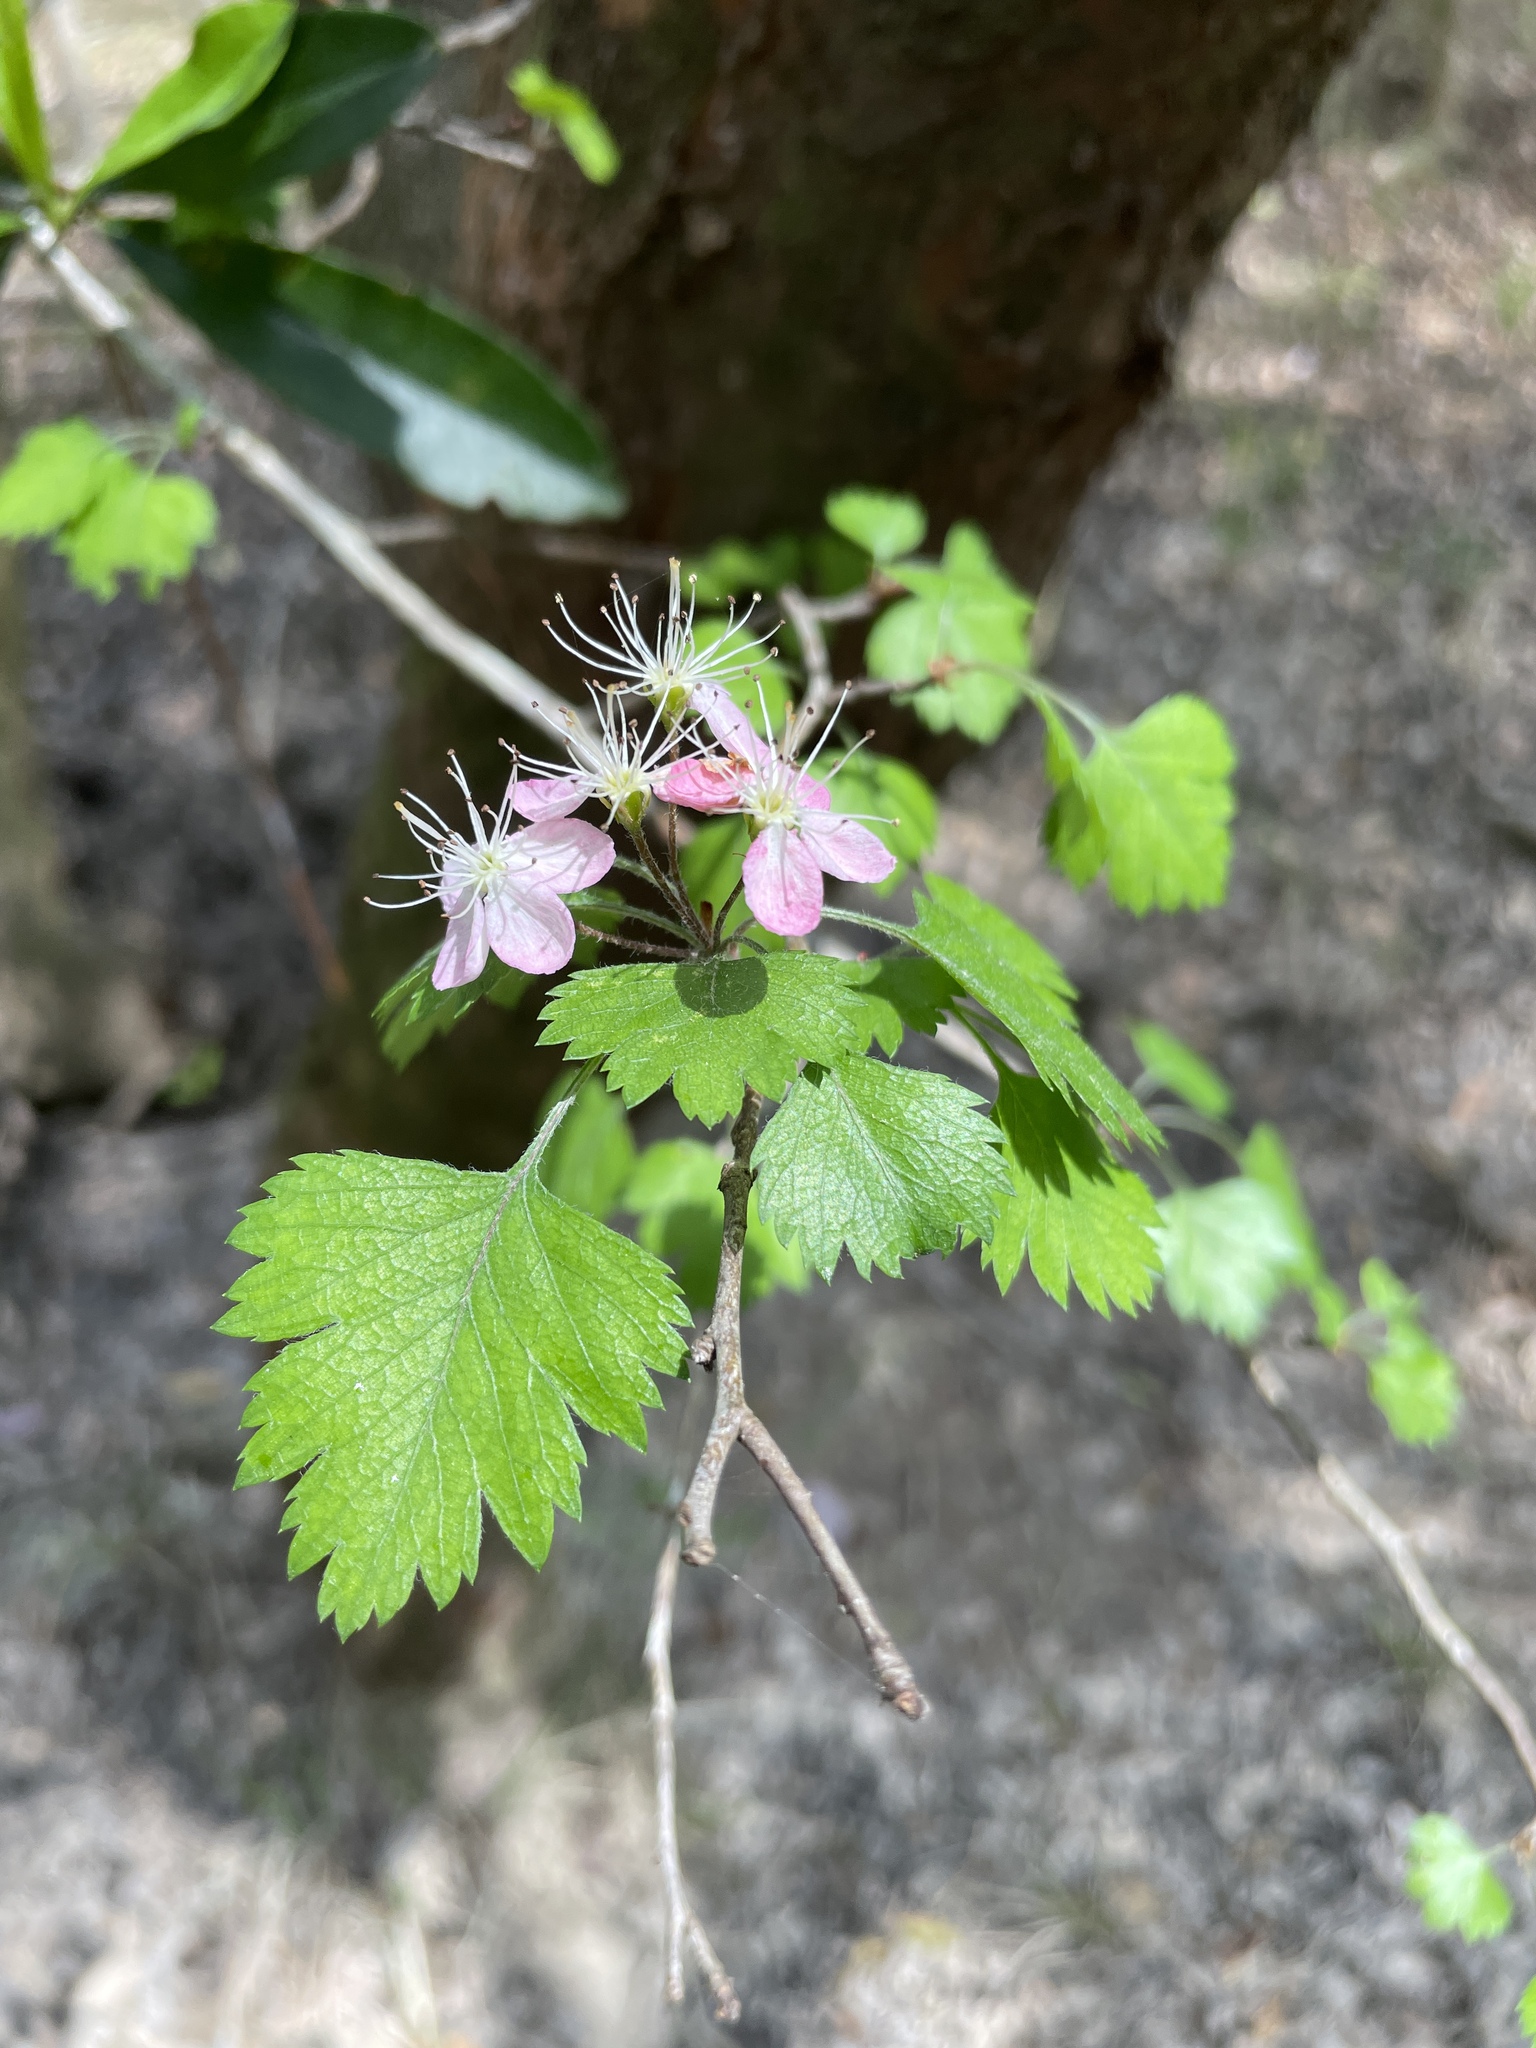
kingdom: Plantae
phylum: Tracheophyta
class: Magnoliopsida
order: Rosales
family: Rosaceae
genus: Crataegus
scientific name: Crataegus marshallii
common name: Parsley-hawthorn
